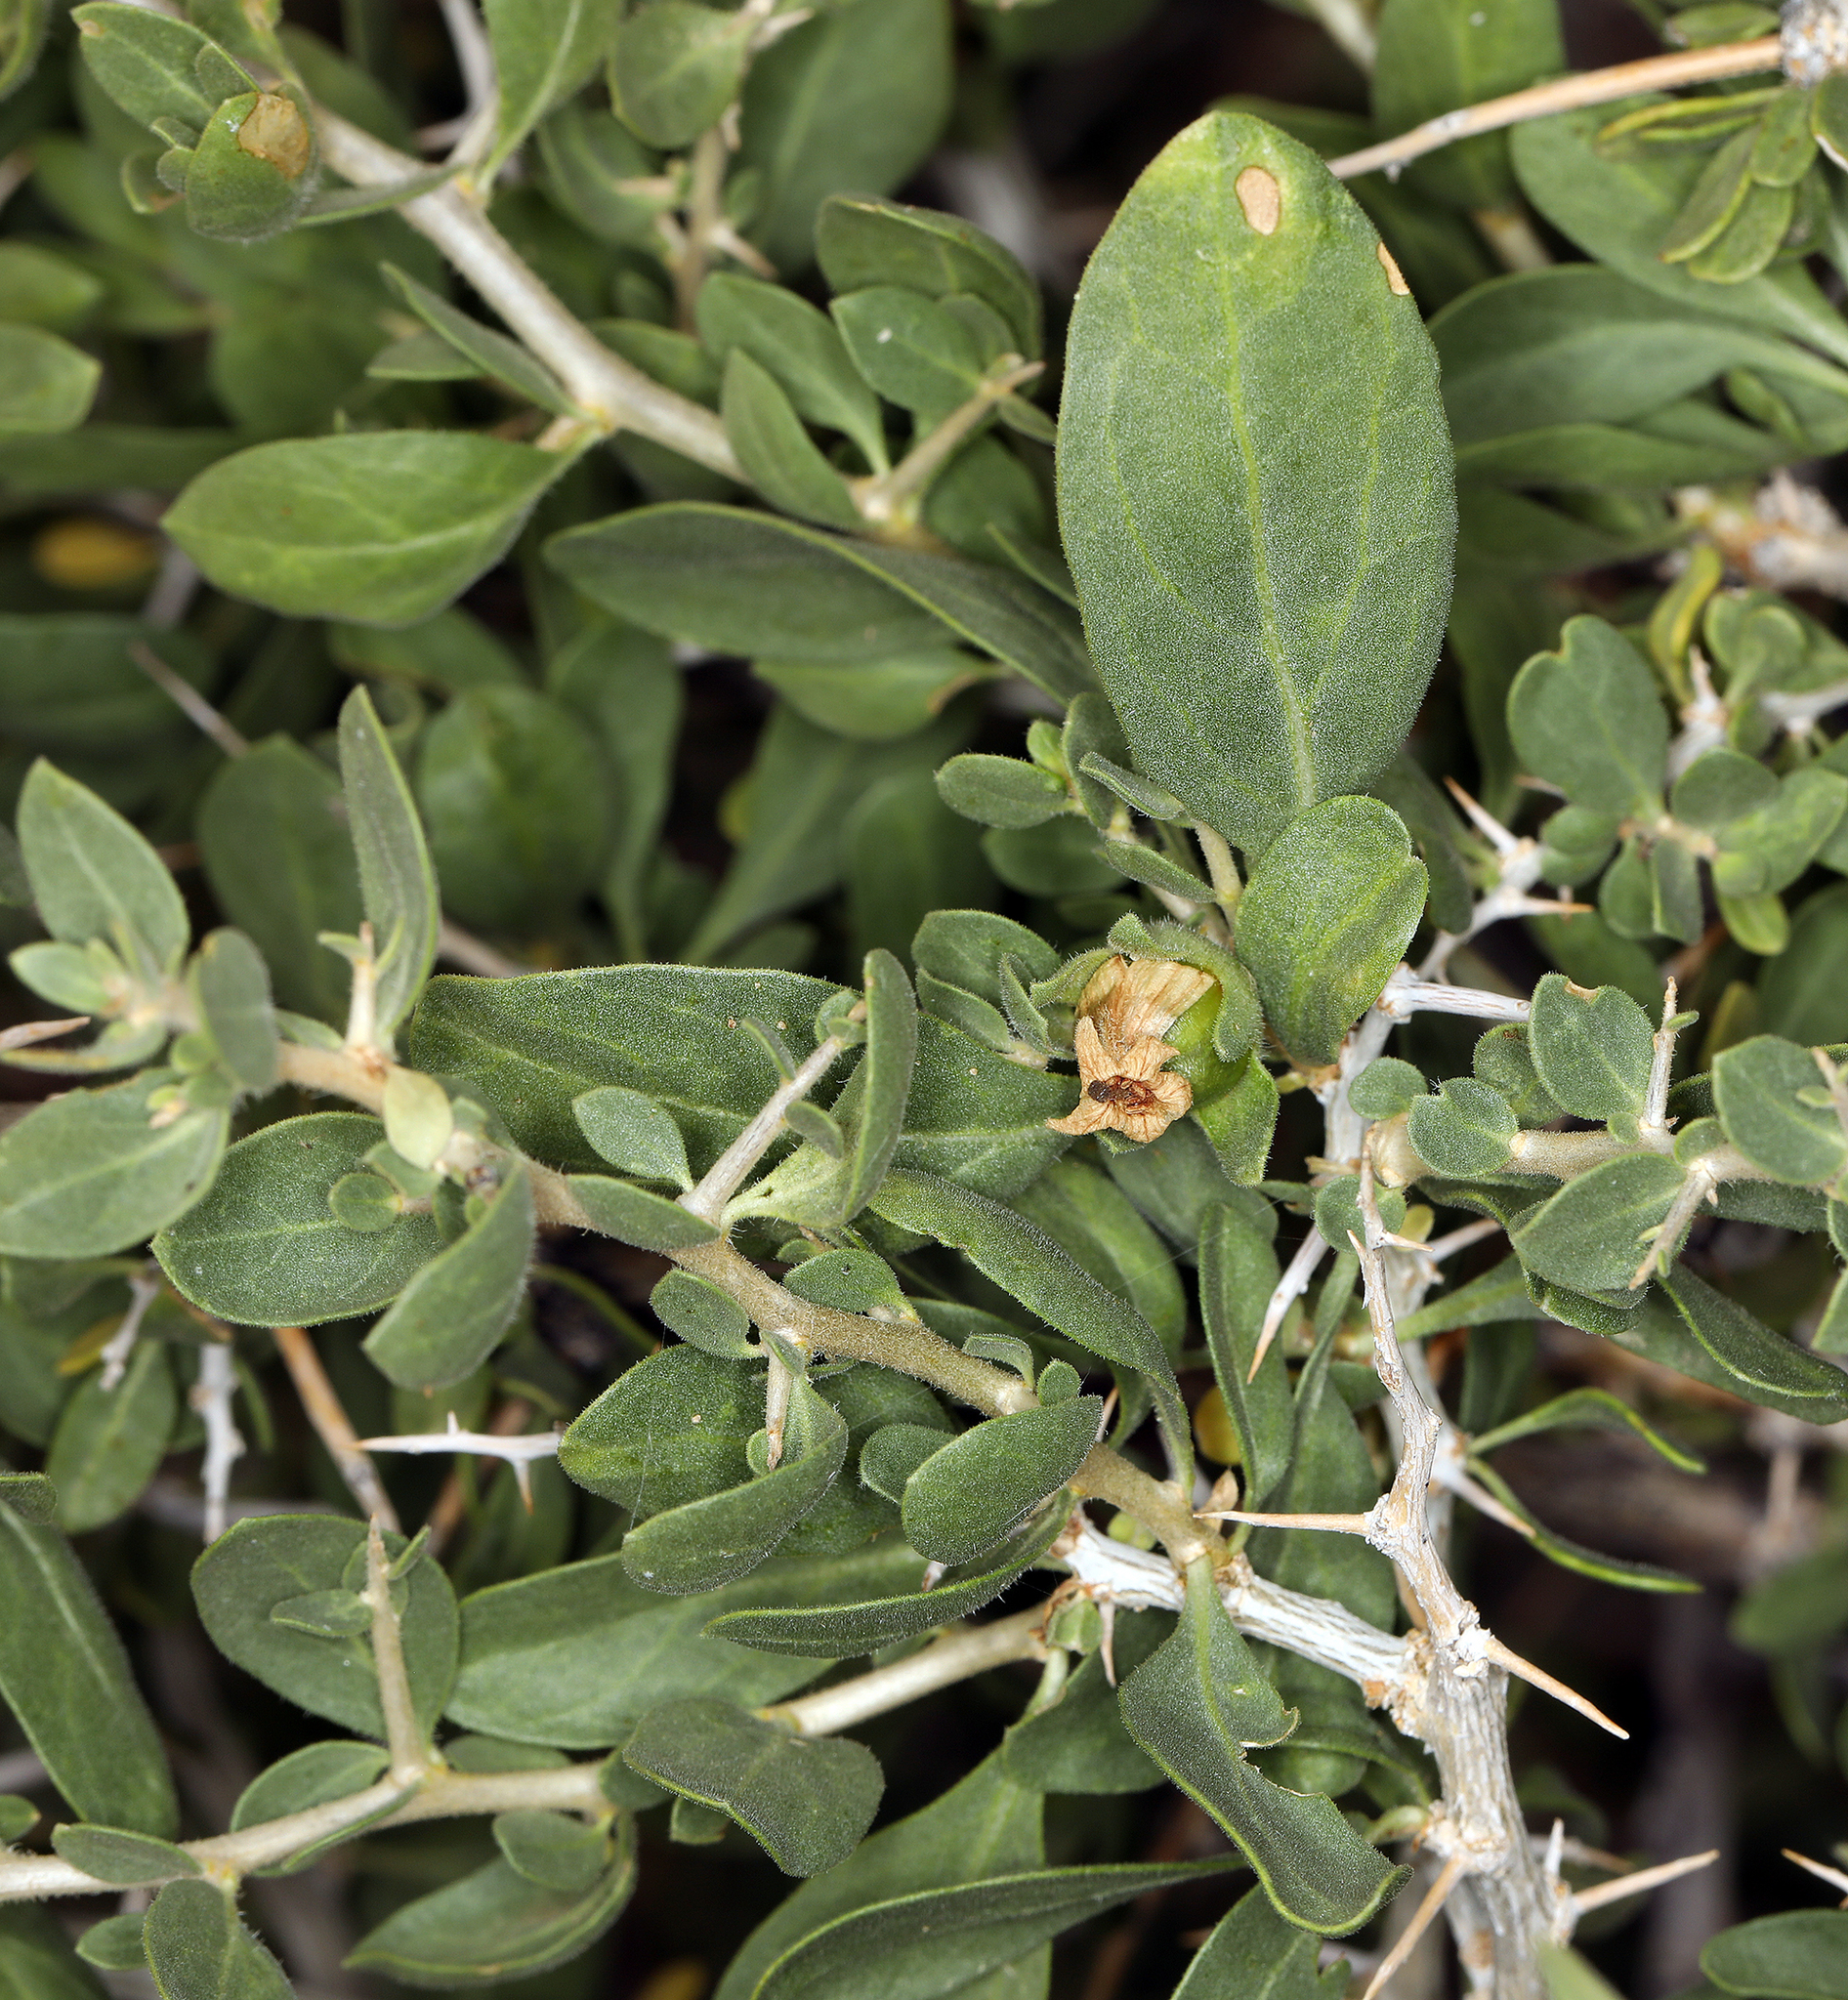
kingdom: Plantae
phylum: Tracheophyta
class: Magnoliopsida
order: Solanales
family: Solanaceae
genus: Lycium
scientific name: Lycium cooperi
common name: Peachthorn
